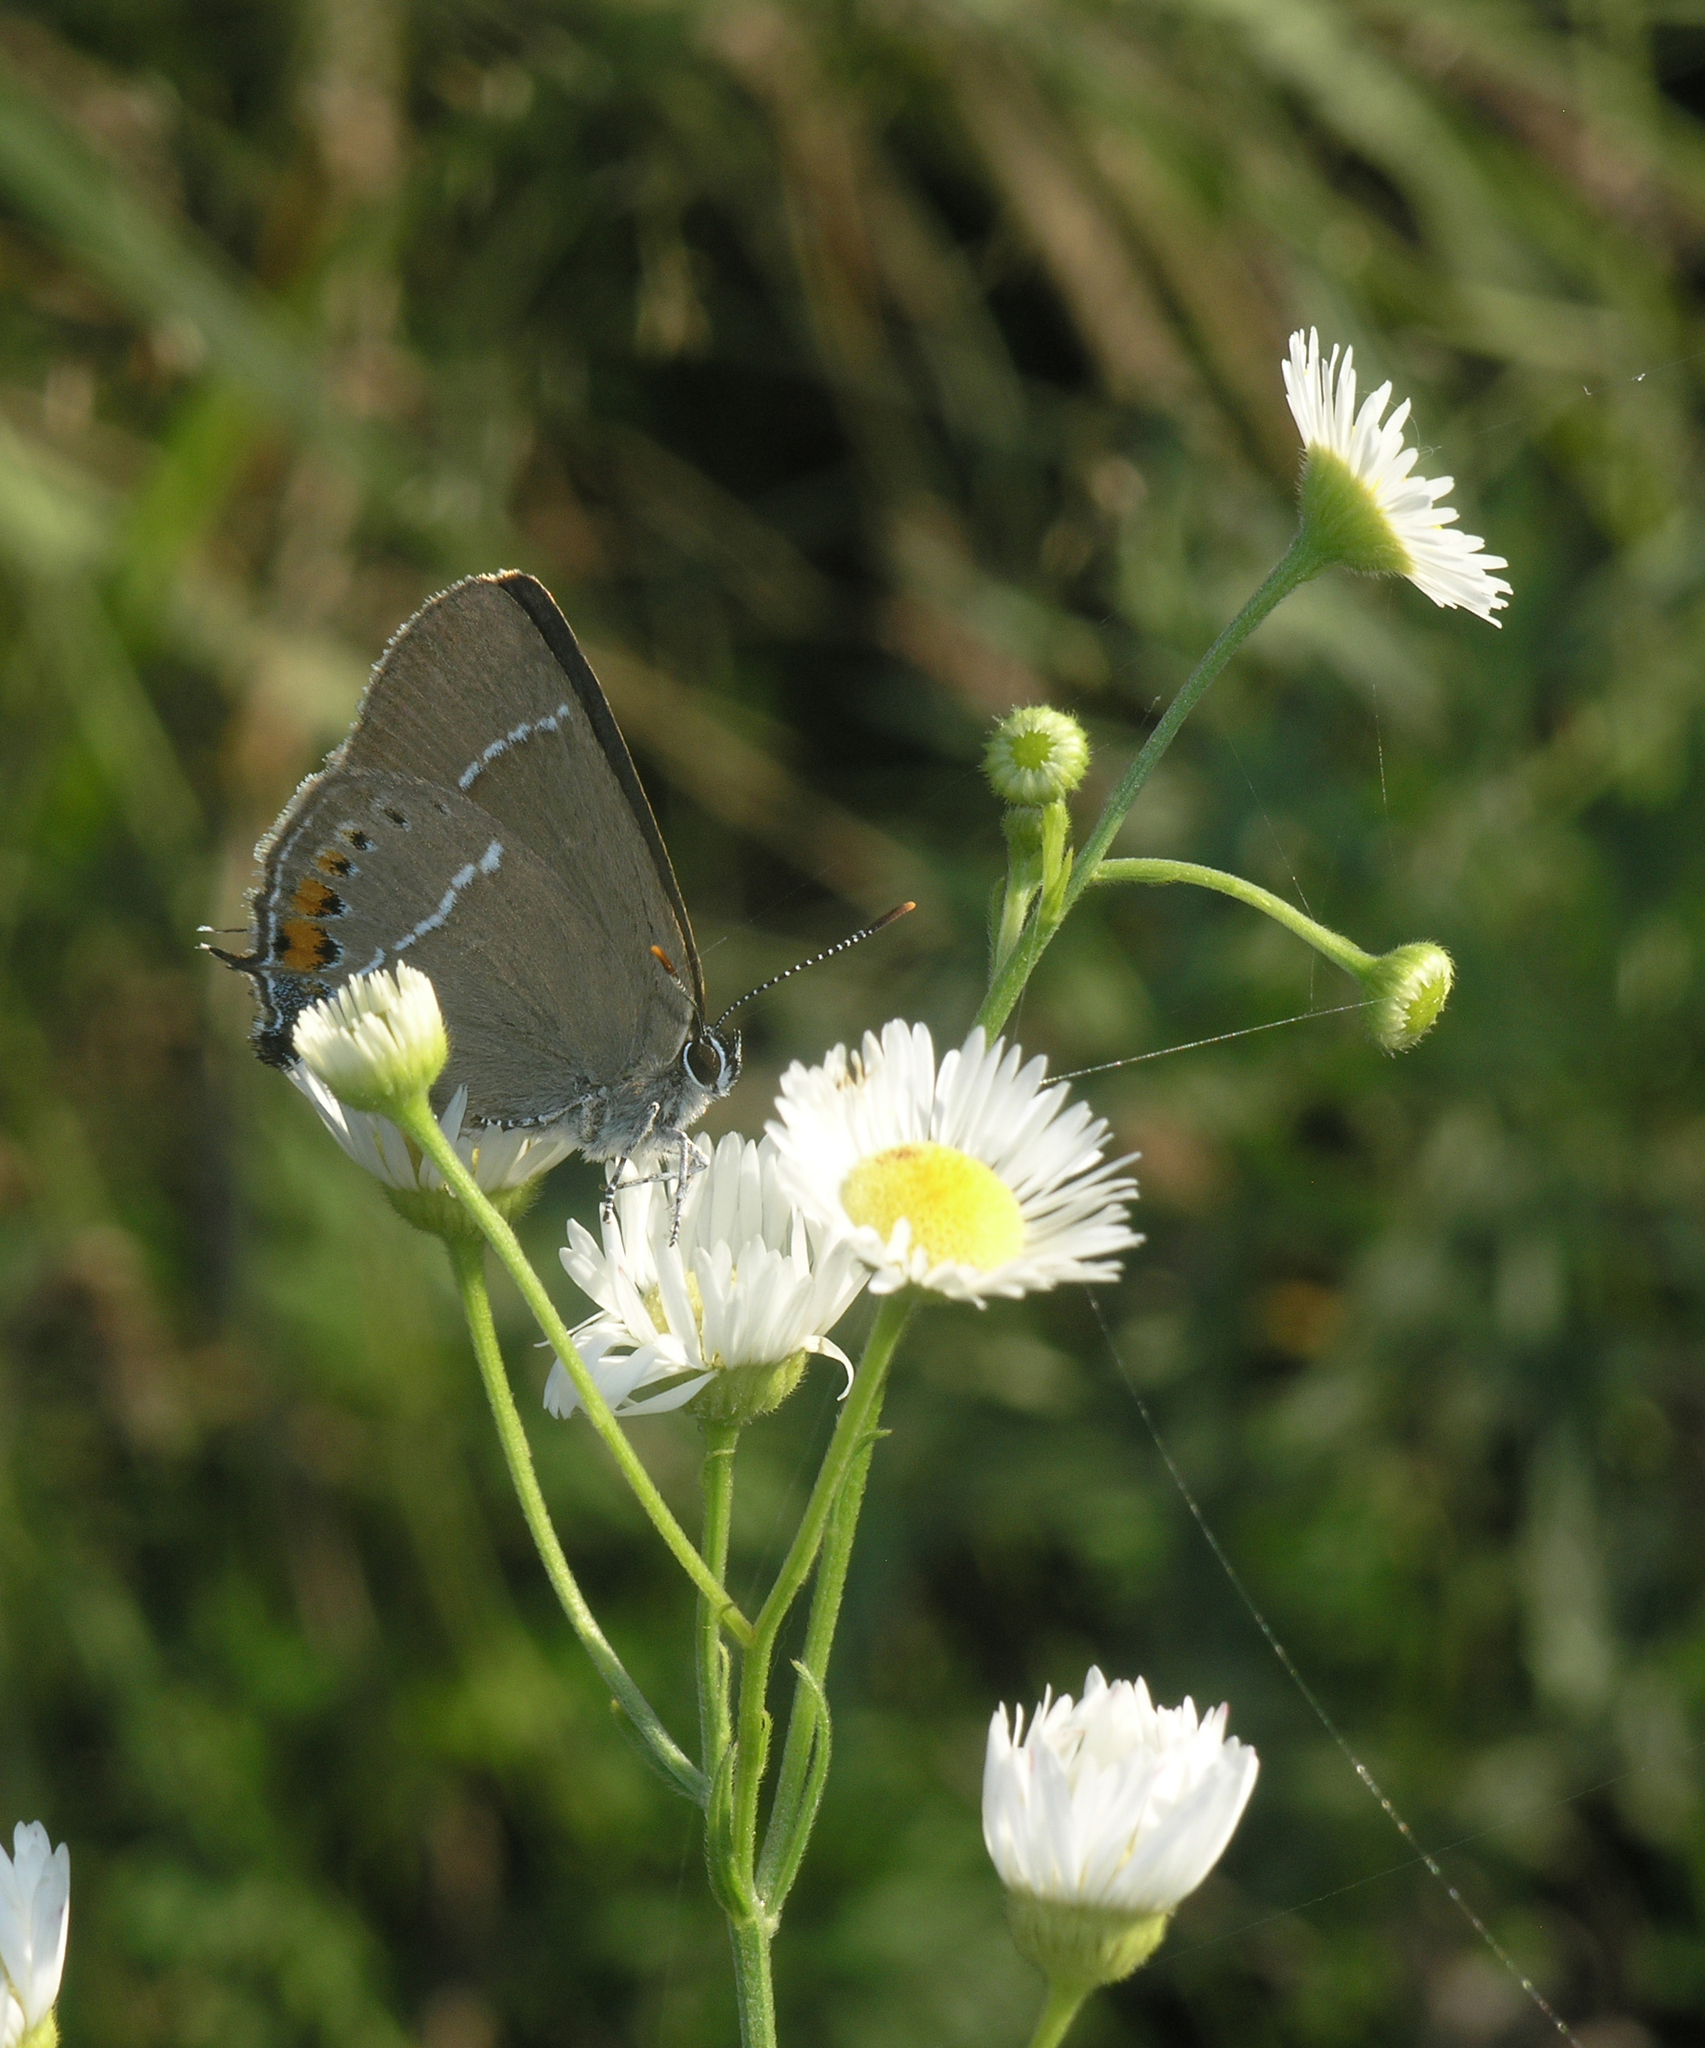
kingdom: Plantae
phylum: Tracheophyta
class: Magnoliopsida
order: Asterales
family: Asteraceae
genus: Erigeron
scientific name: Erigeron strigosus
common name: Common eastern fleabane
